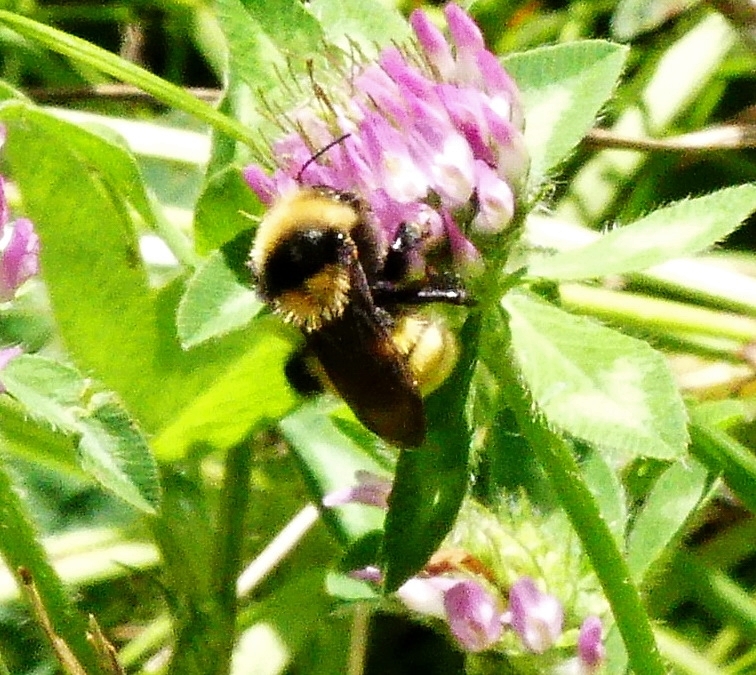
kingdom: Animalia
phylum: Arthropoda
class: Insecta
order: Hymenoptera
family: Apidae
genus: Bombus
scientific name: Bombus borealis
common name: Northern amber bumble bee
